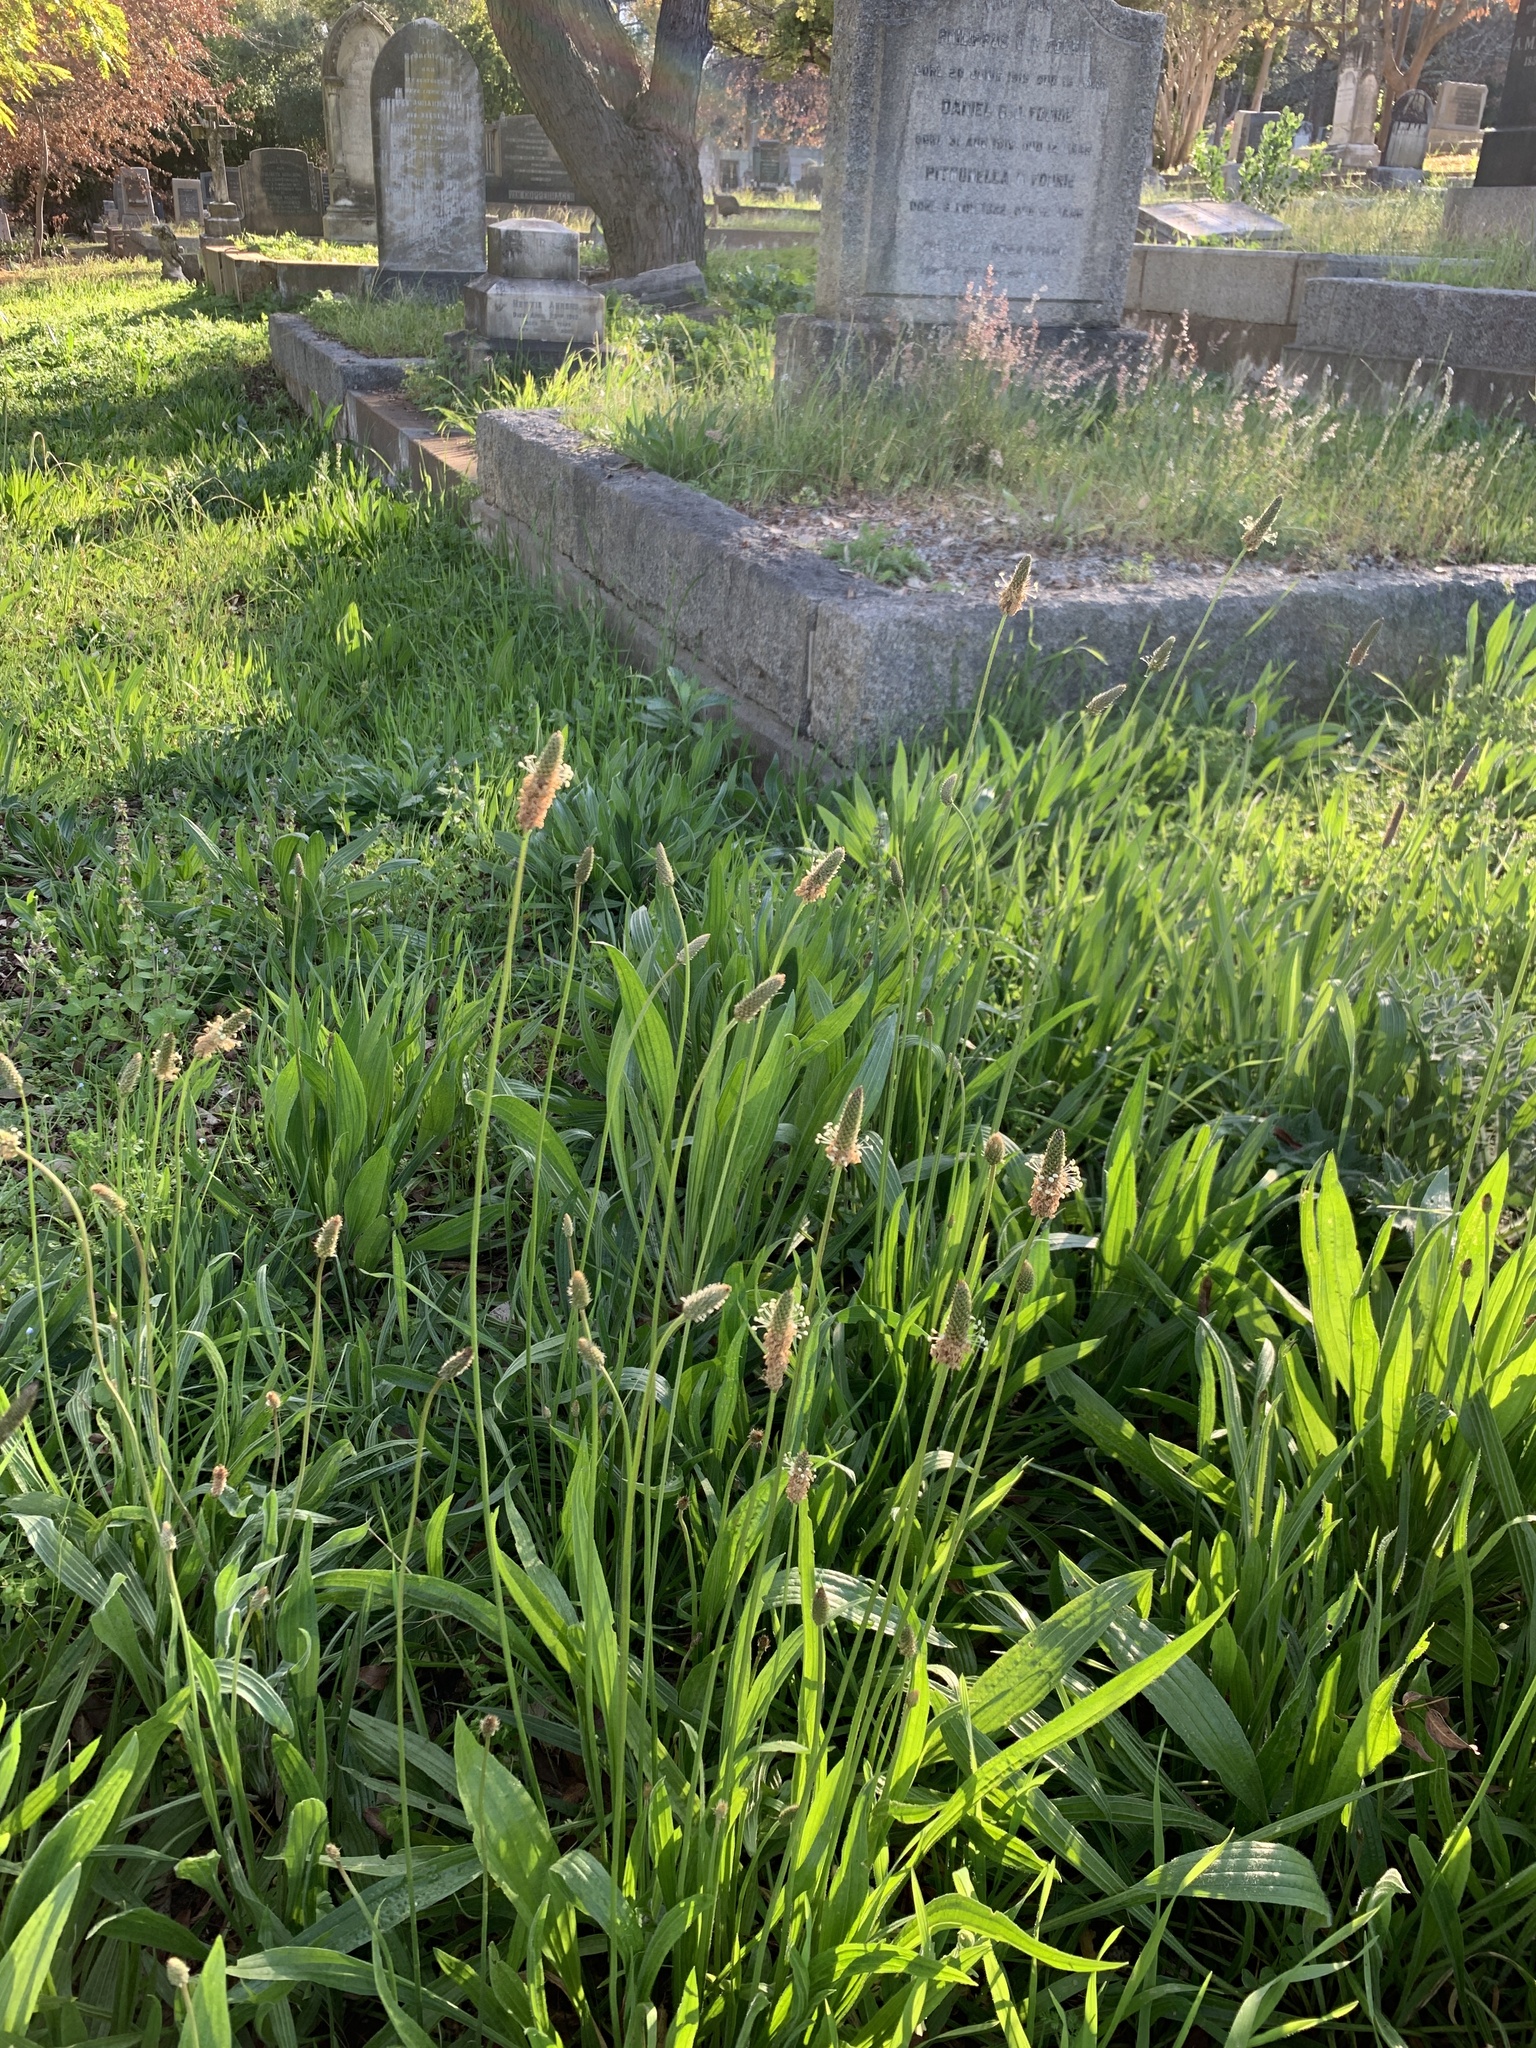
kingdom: Plantae
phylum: Tracheophyta
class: Magnoliopsida
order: Lamiales
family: Plantaginaceae
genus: Plantago
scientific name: Plantago lanceolata
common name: Ribwort plantain
